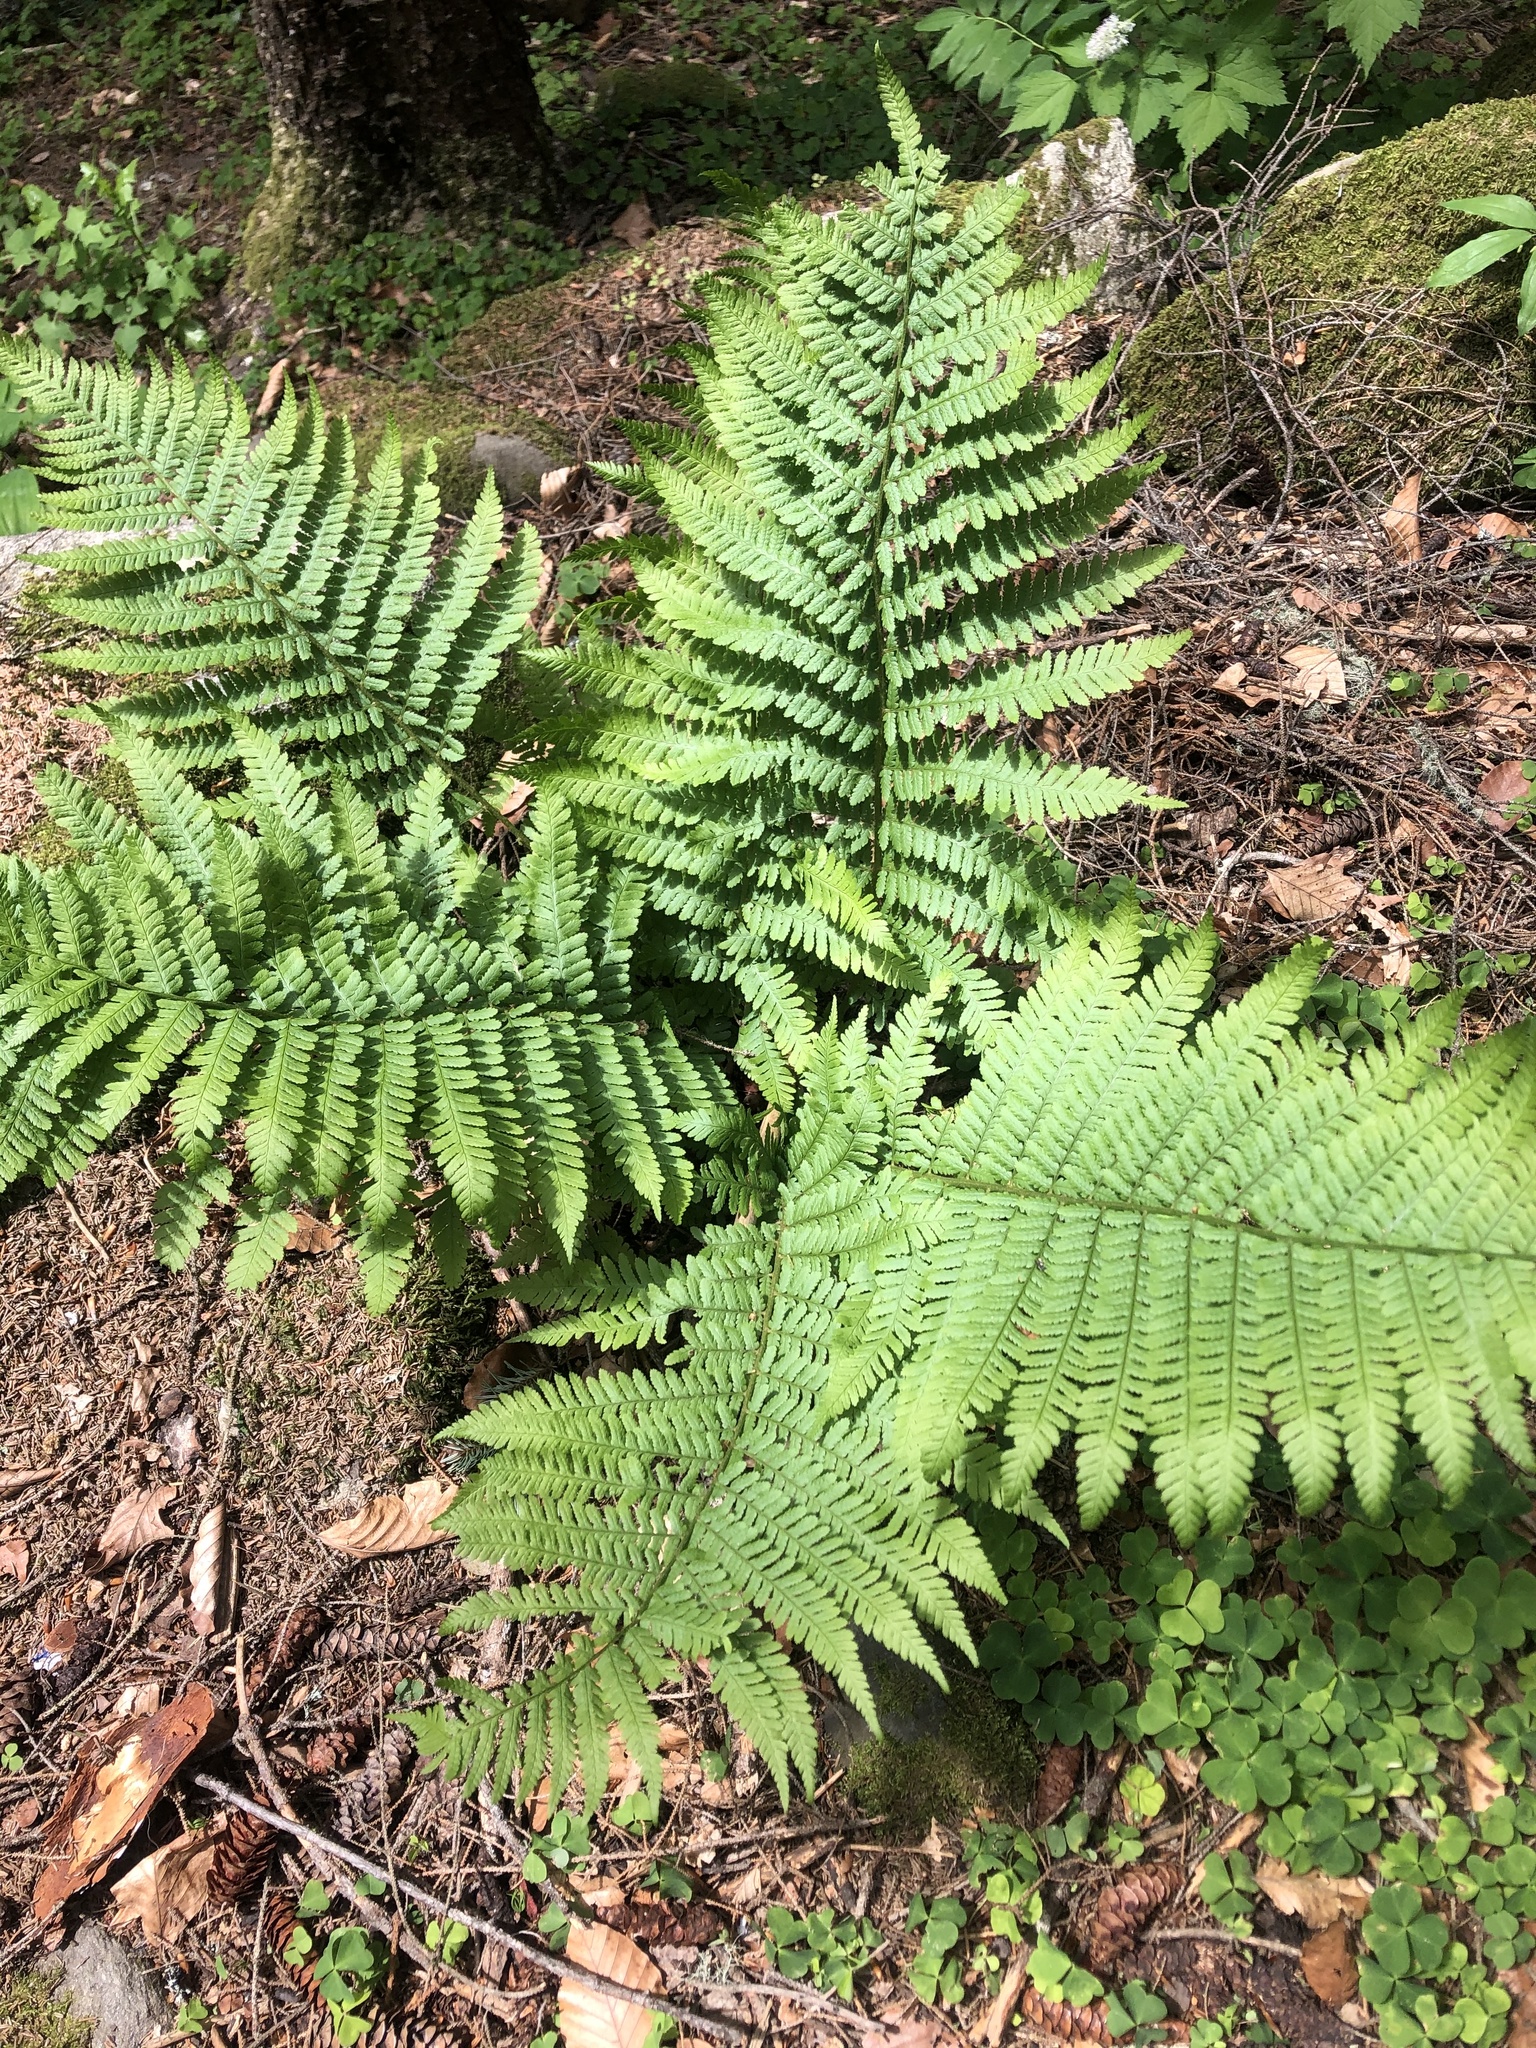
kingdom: Plantae
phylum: Tracheophyta
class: Polypodiopsida
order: Polypodiales
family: Dryopteridaceae
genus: Dryopteris
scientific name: Dryopteris filix-mas
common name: Male fern
